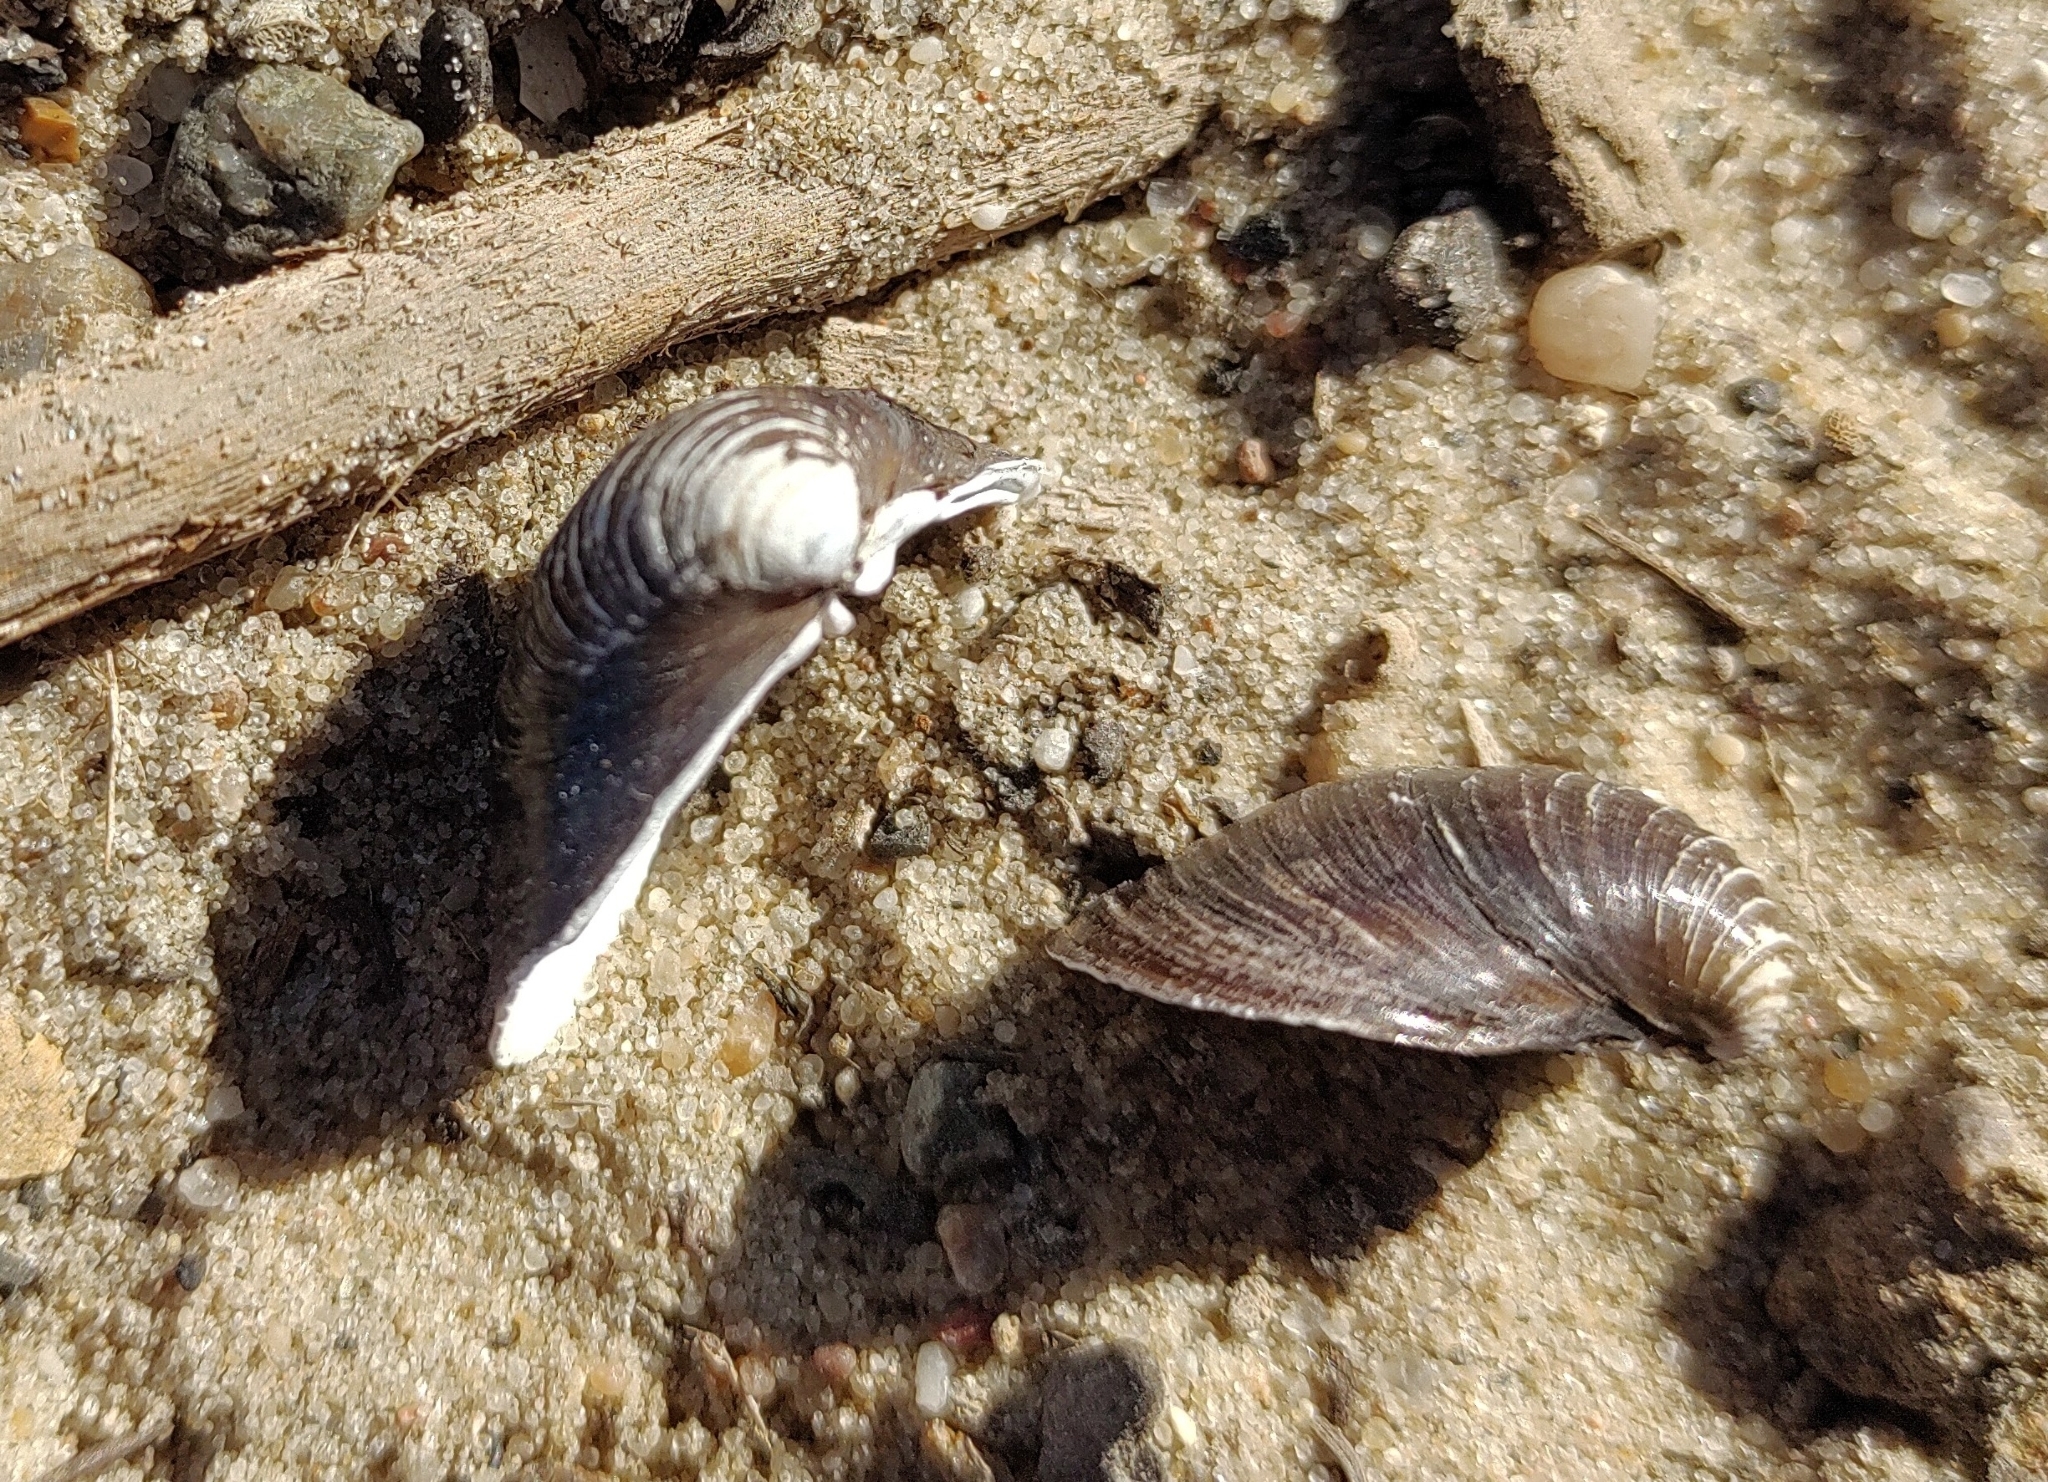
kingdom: Animalia
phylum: Mollusca
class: Bivalvia
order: Venerida
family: Cyrenidae
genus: Corbicula
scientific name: Corbicula fluminea
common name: Asian clam
